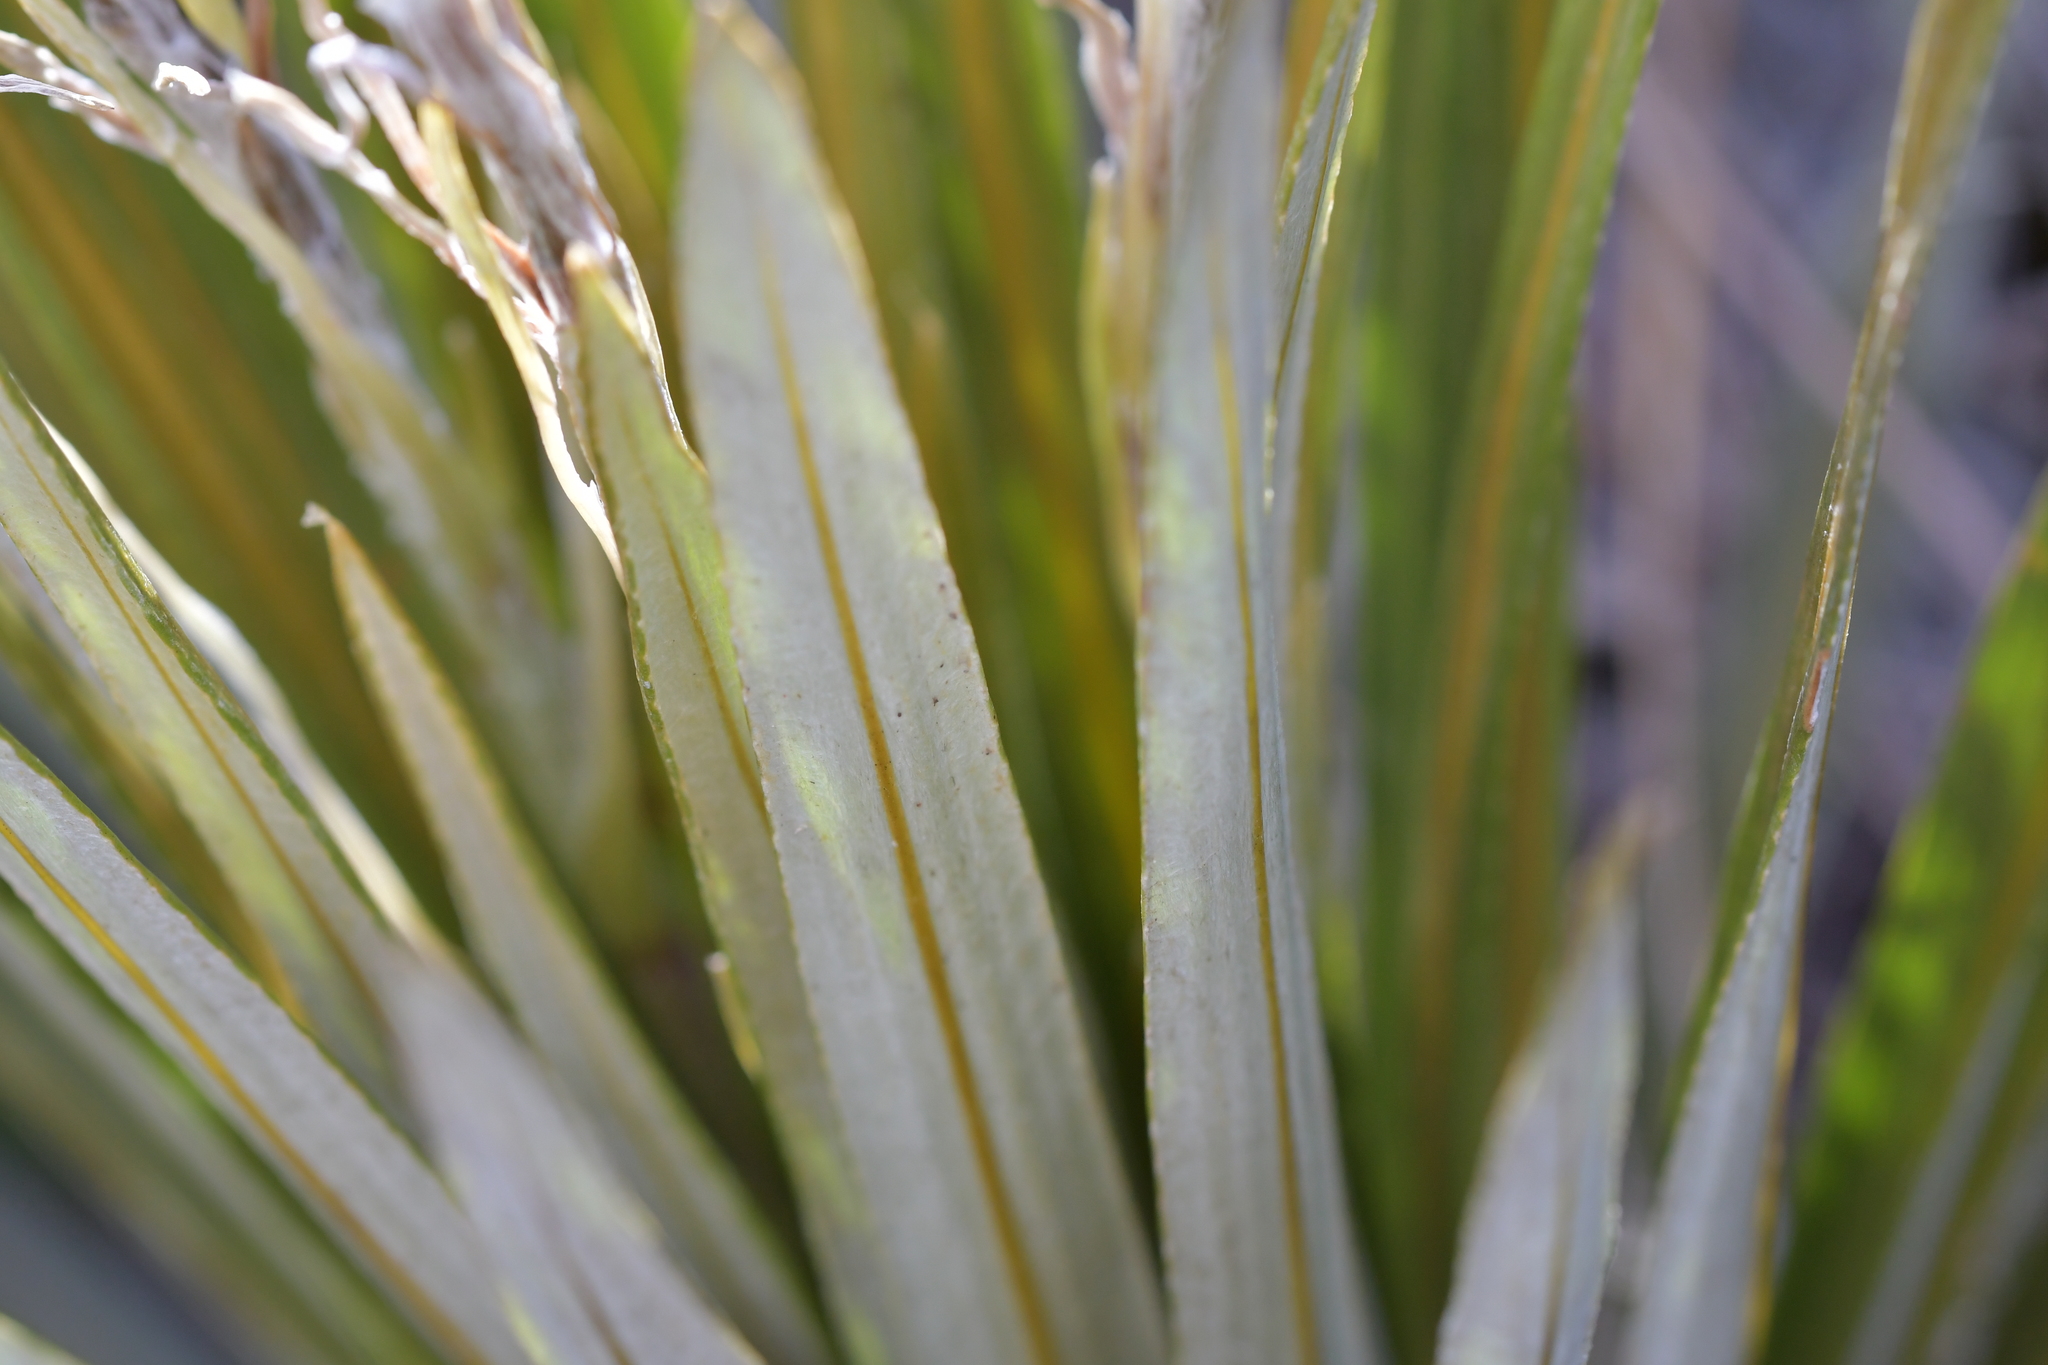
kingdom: Plantae
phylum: Tracheophyta
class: Magnoliopsida
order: Asterales
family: Asteraceae
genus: Celmisia
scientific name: Celmisia armstrongii
